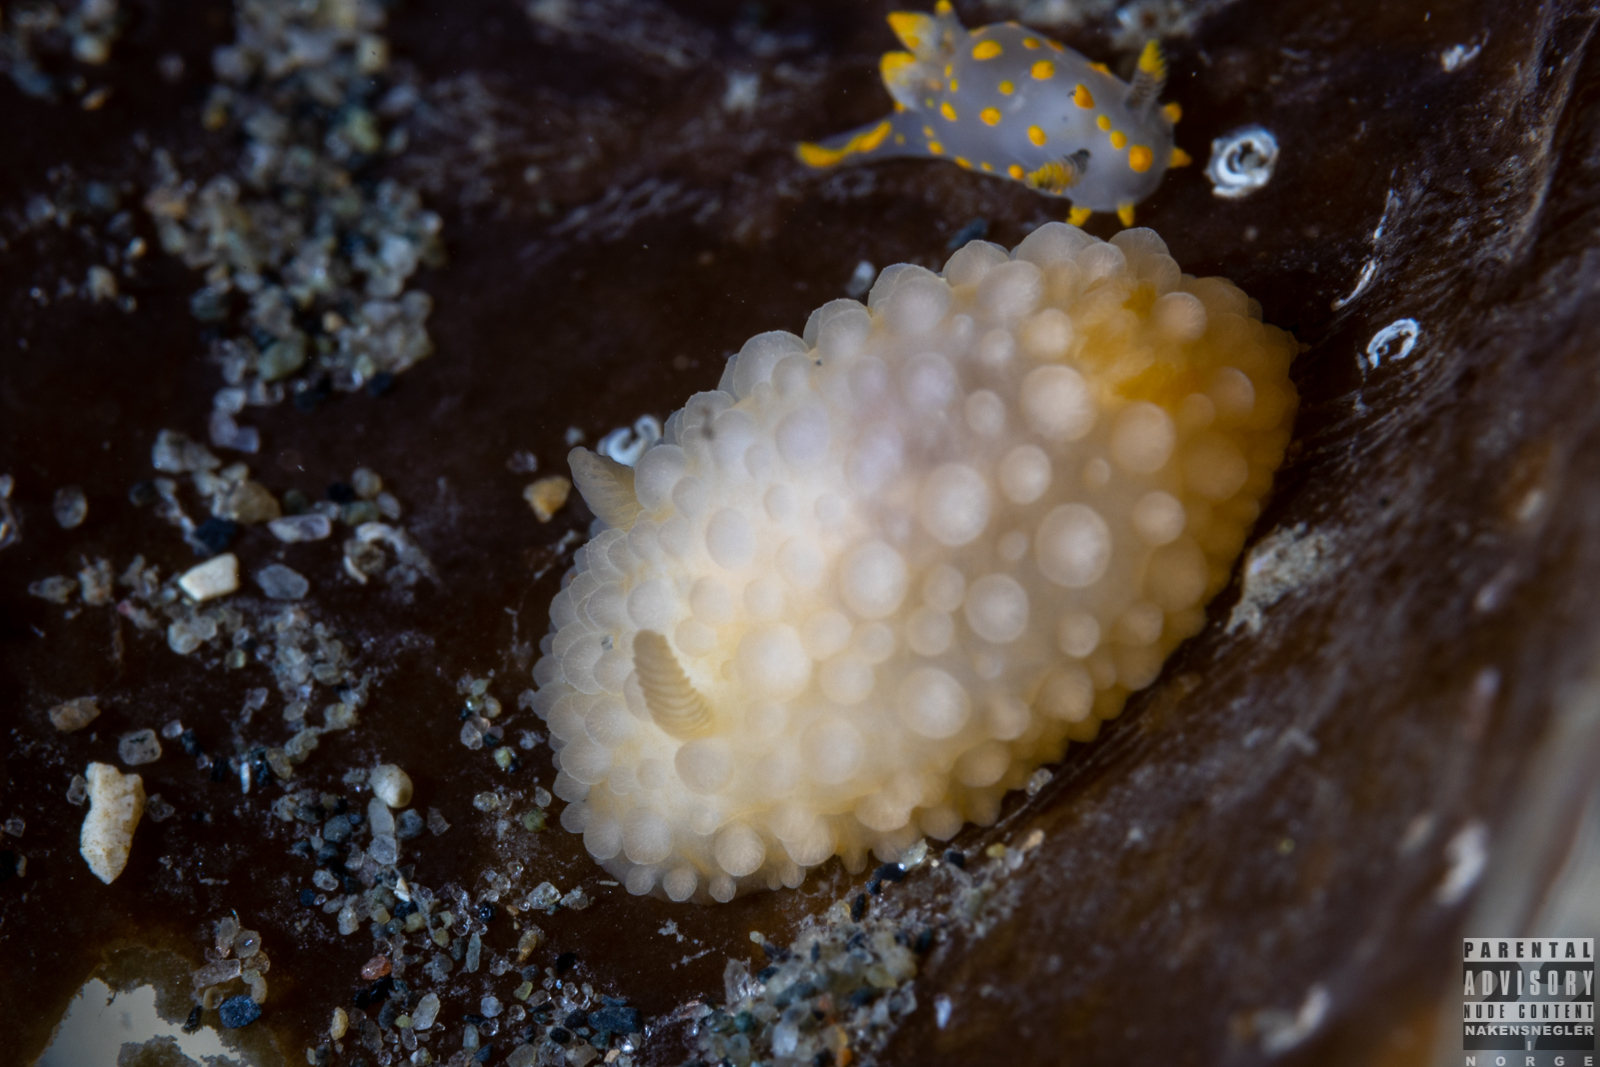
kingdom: Animalia
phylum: Mollusca
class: Gastropoda
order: Nudibranchia
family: Onchidorididae
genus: Adalaria
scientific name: Adalaria loveni
